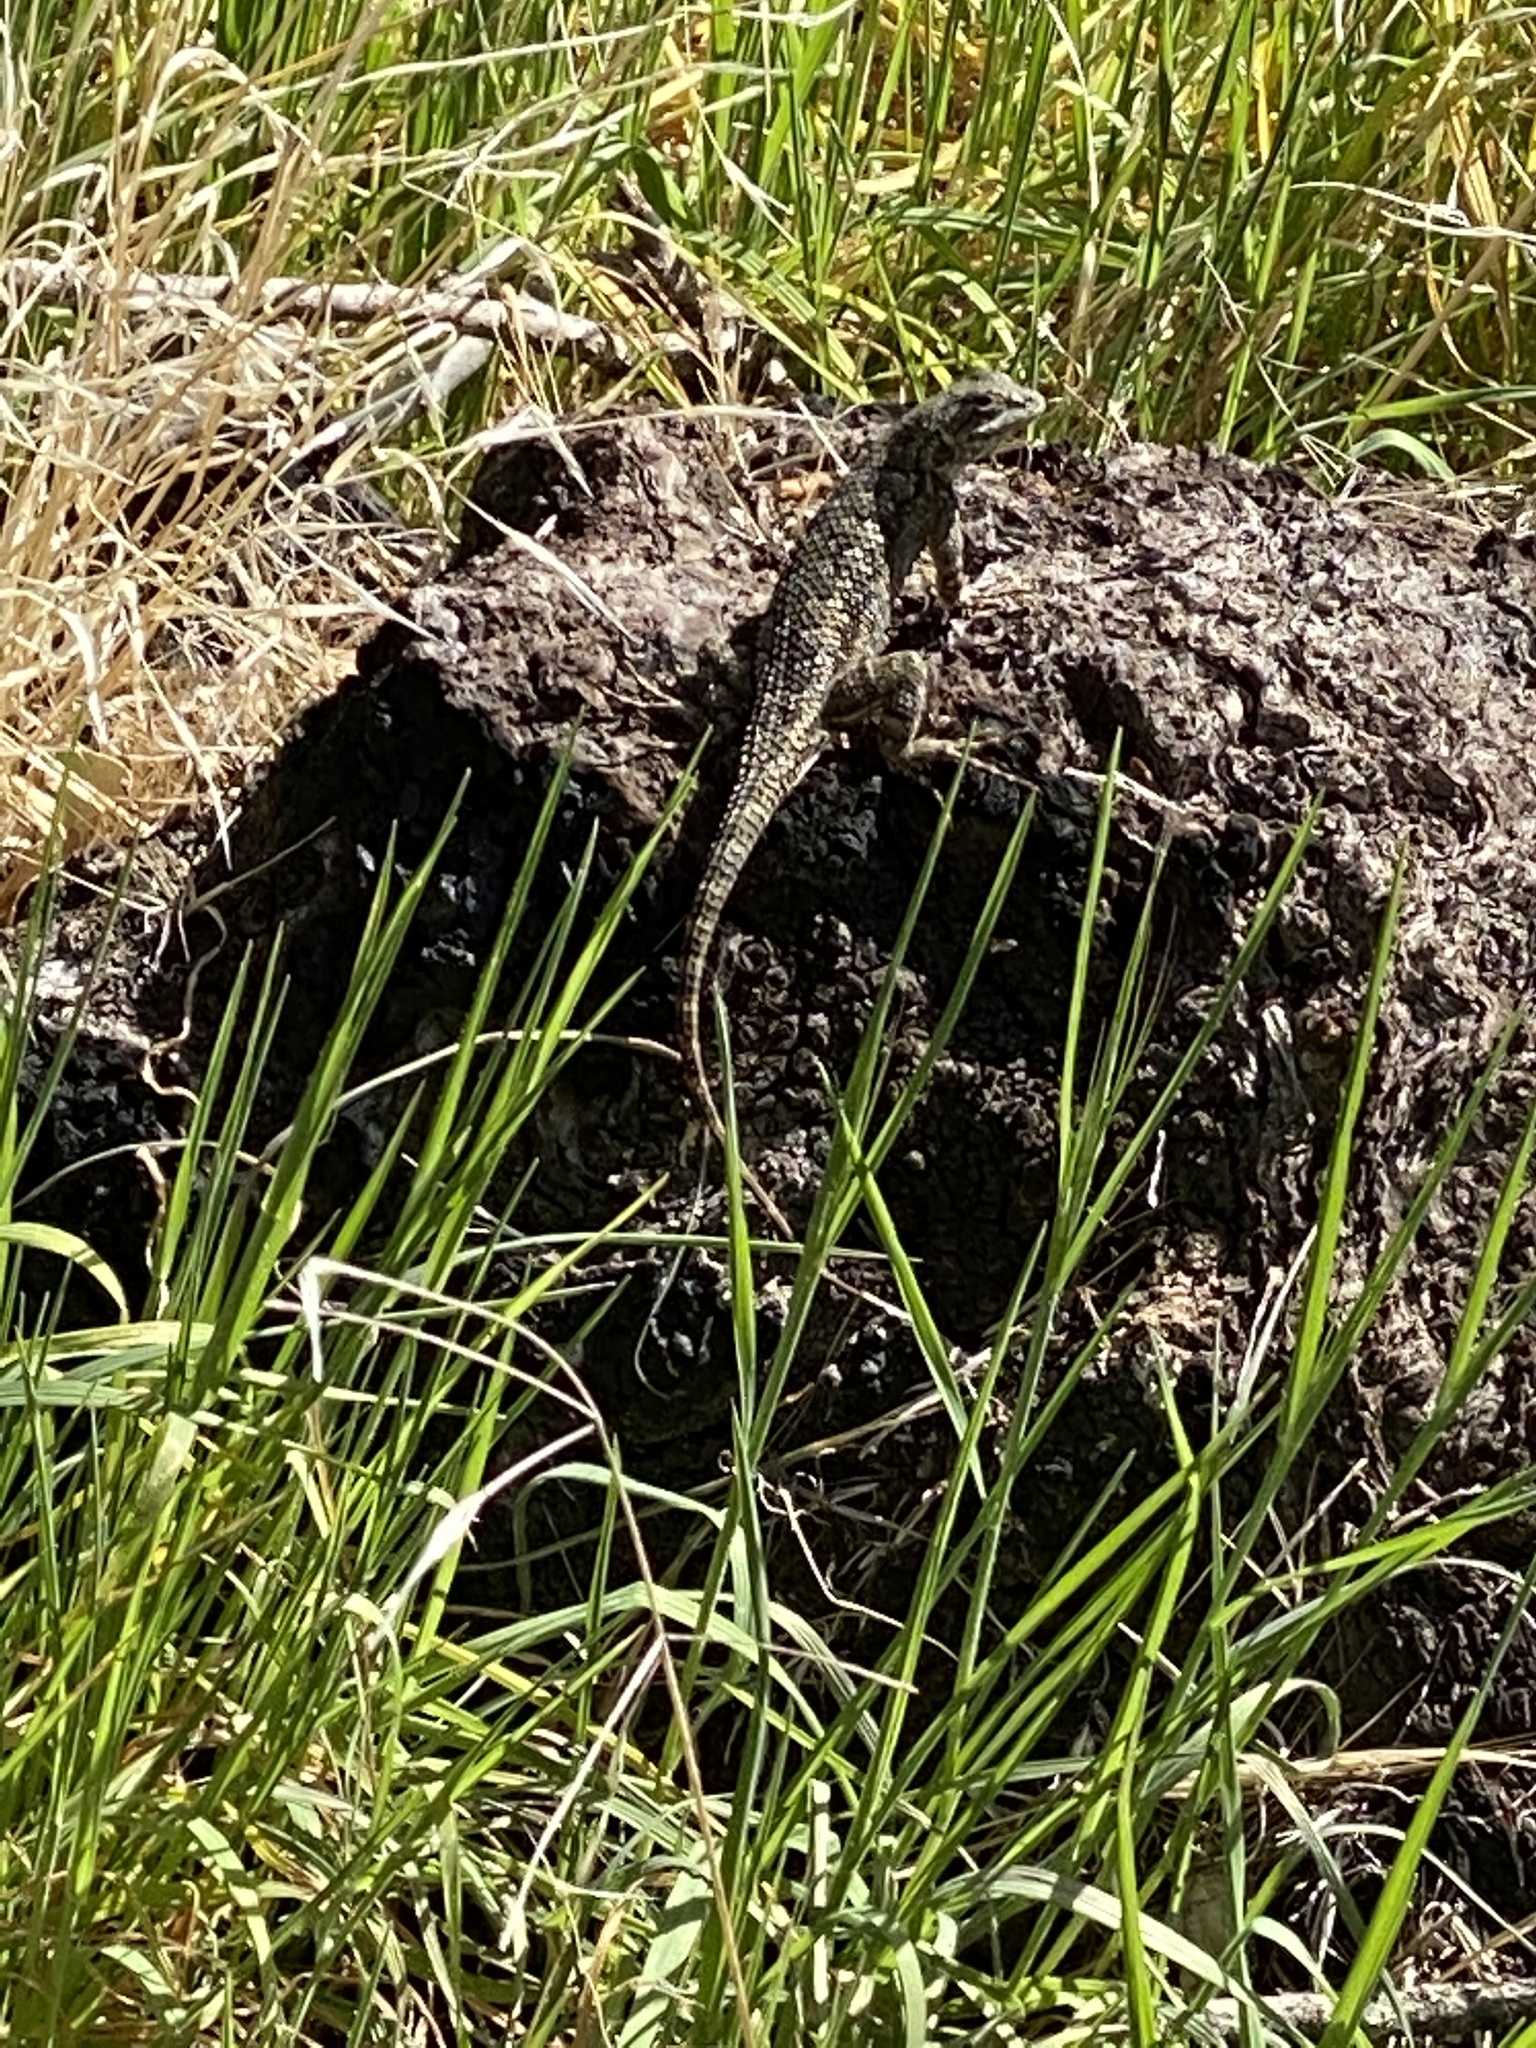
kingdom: Animalia
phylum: Chordata
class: Squamata
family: Phrynosomatidae
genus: Sceloporus
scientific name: Sceloporus occidentalis
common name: Western fence lizard
